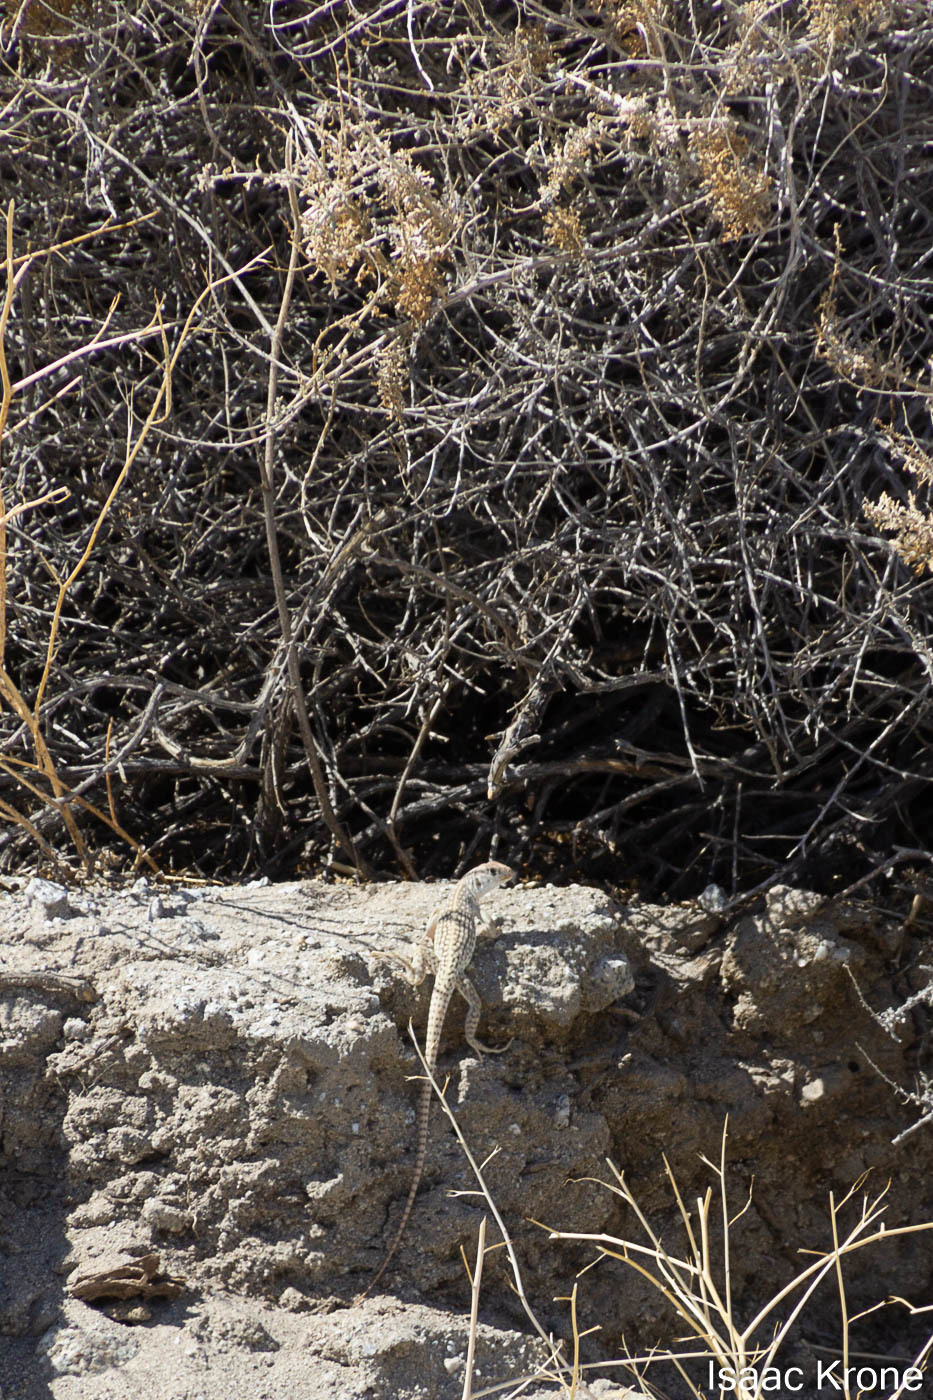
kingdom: Animalia
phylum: Chordata
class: Squamata
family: Iguanidae
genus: Dipsosaurus
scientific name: Dipsosaurus dorsalis
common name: Desert iguana
